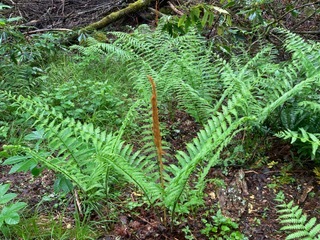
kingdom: Plantae
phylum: Tracheophyta
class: Polypodiopsida
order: Osmundales
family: Osmundaceae
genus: Osmundastrum
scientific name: Osmundastrum cinnamomeum
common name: Cinnamon fern
